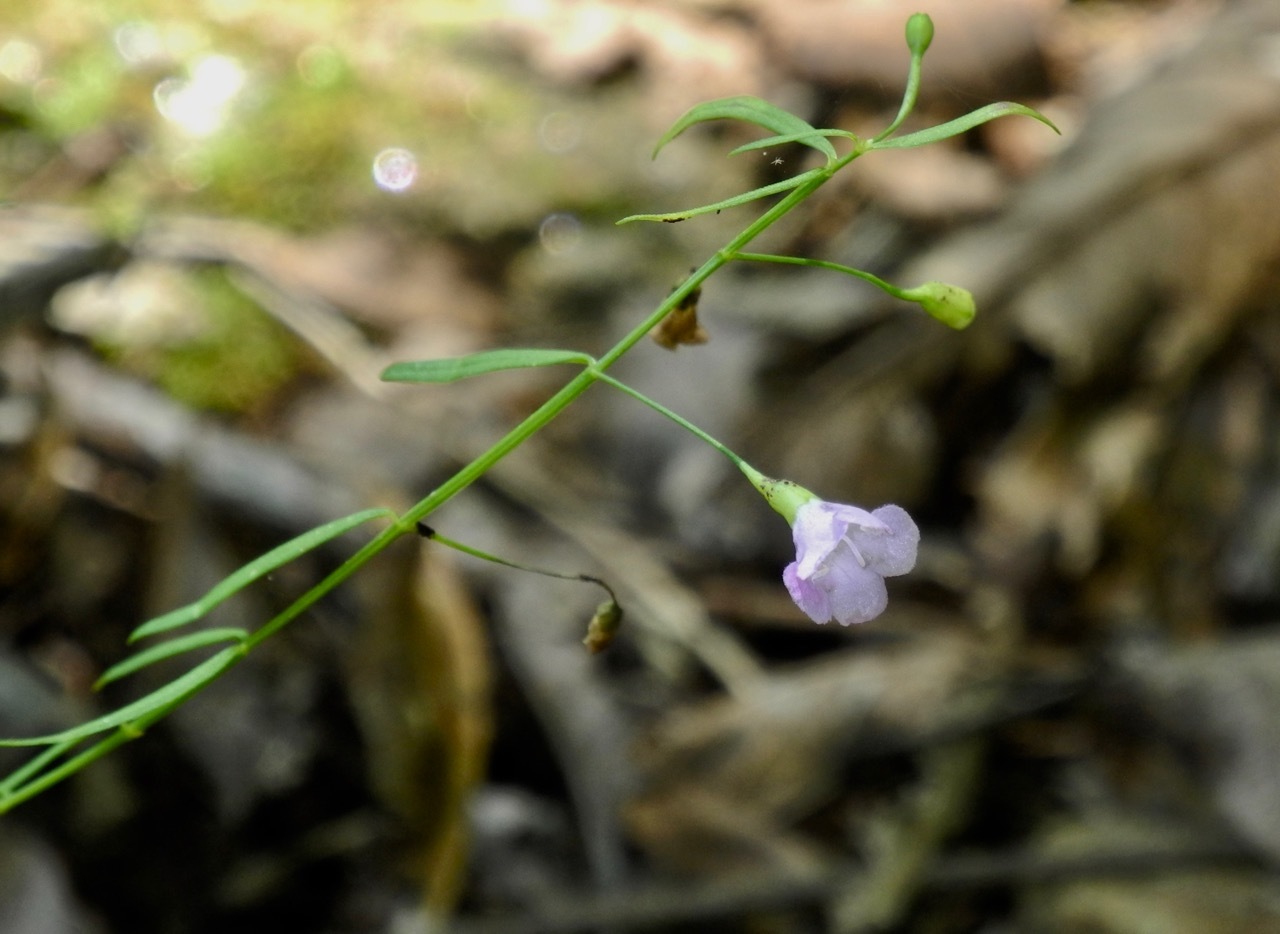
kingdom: Plantae
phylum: Tracheophyta
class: Magnoliopsida
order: Lamiales
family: Orobanchaceae
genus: Agalinis
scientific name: Agalinis tenuifolia
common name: Slender agalinis
